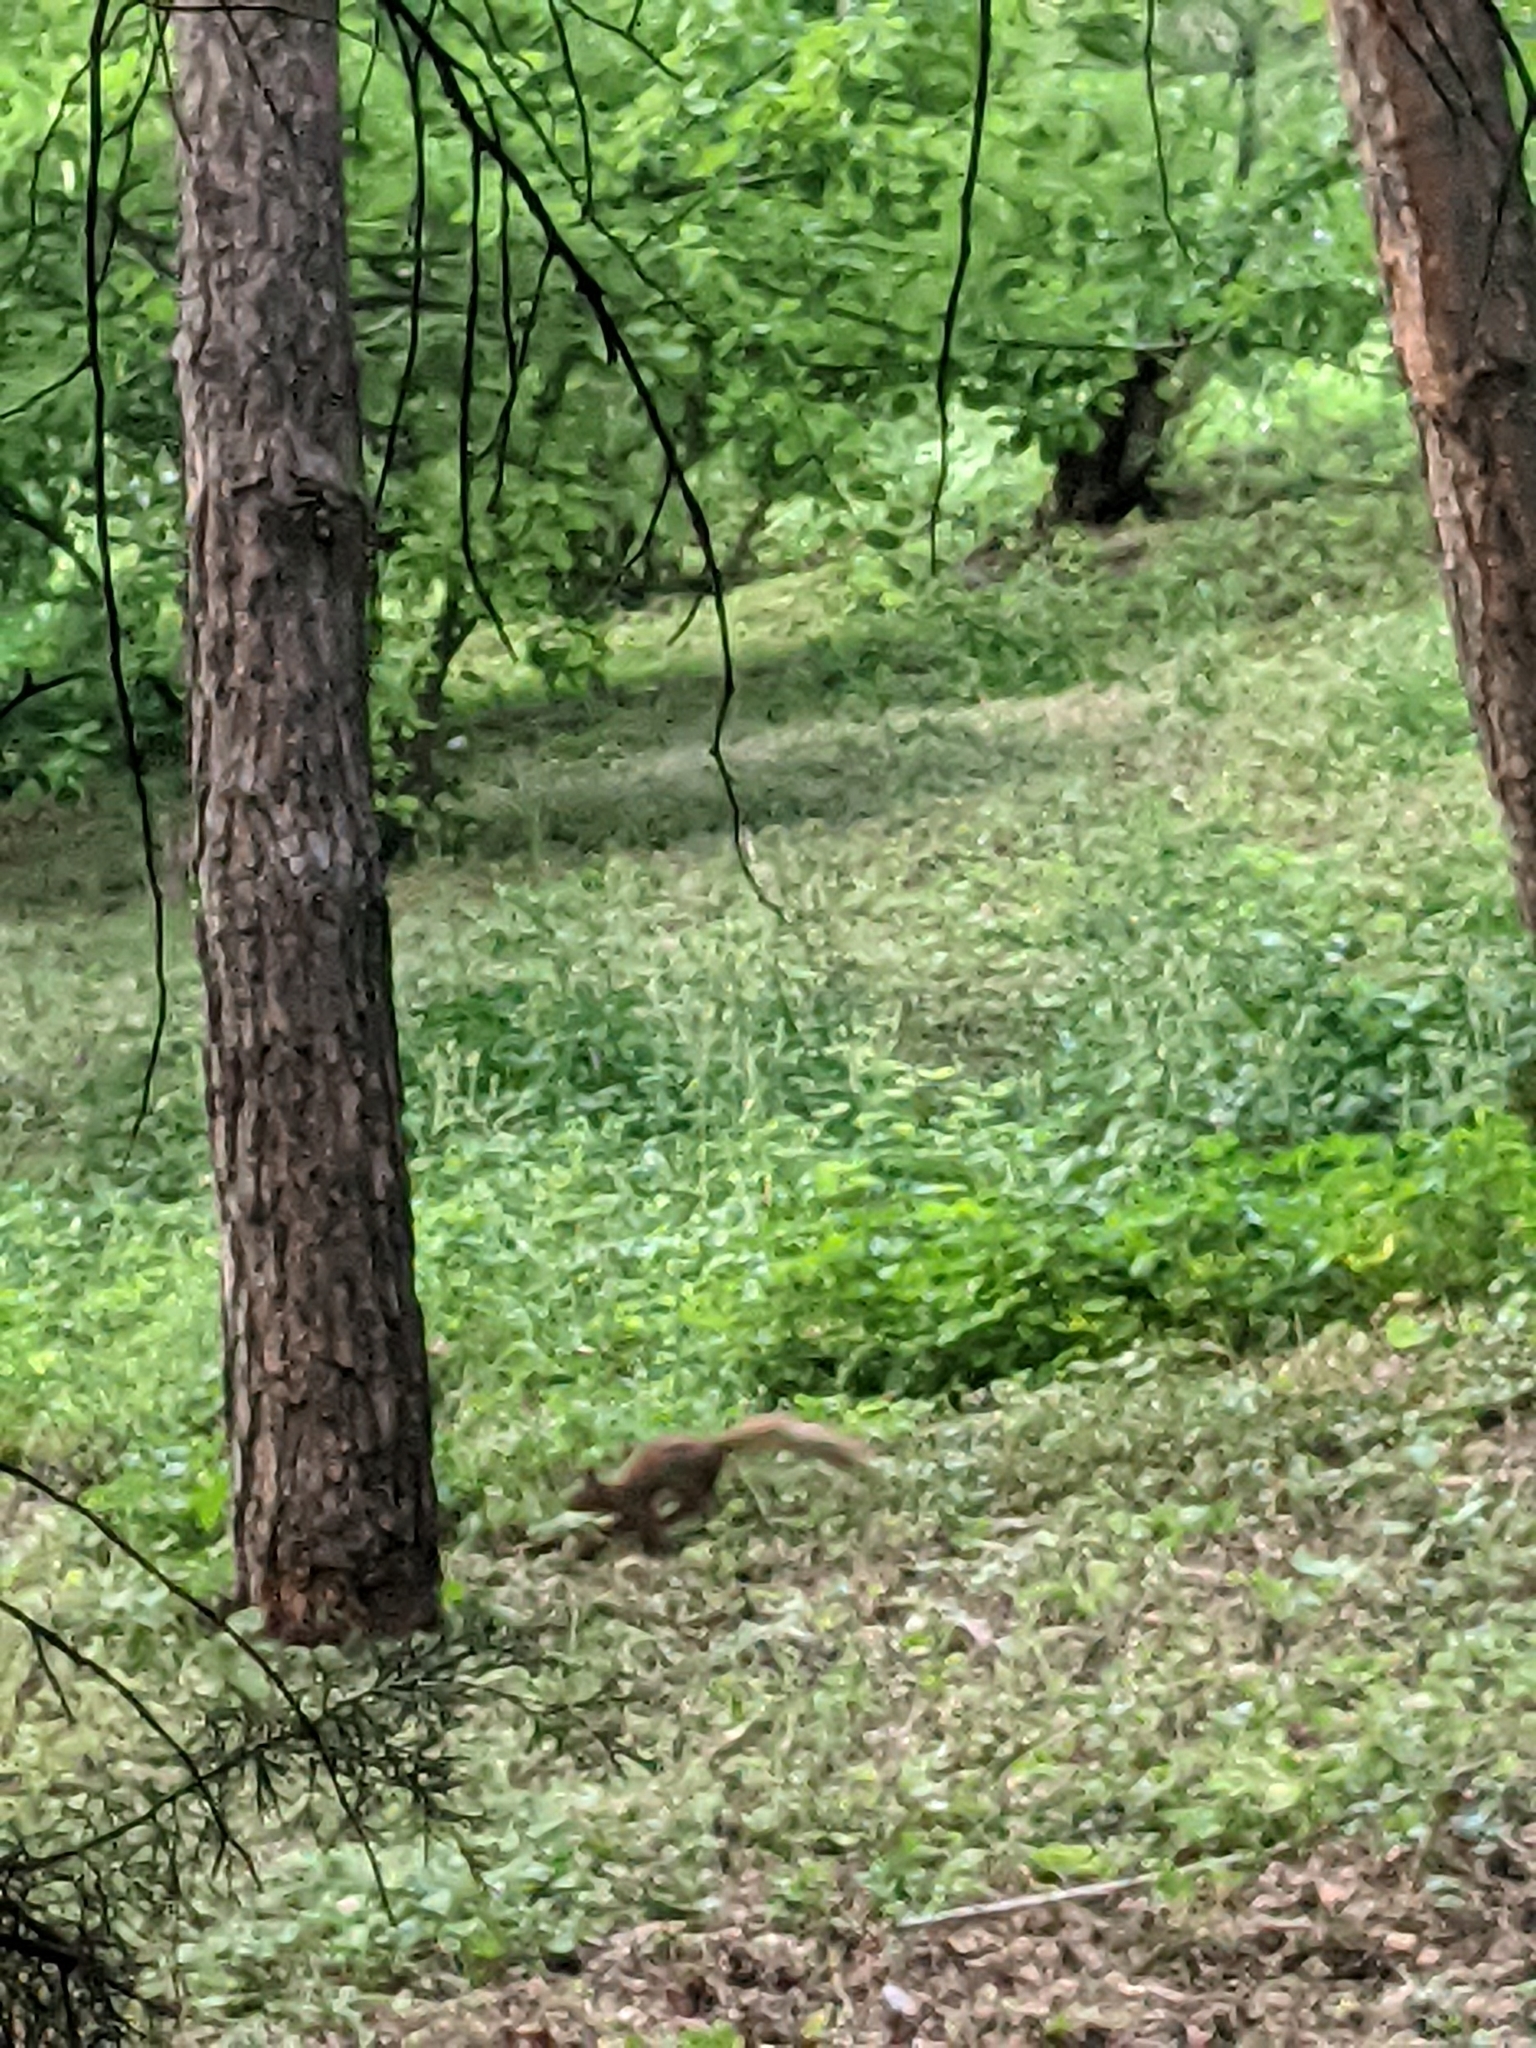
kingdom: Animalia
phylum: Chordata
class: Mammalia
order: Rodentia
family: Sciuridae
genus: Sciurus
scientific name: Sciurus vulgaris
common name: Eurasian red squirrel
